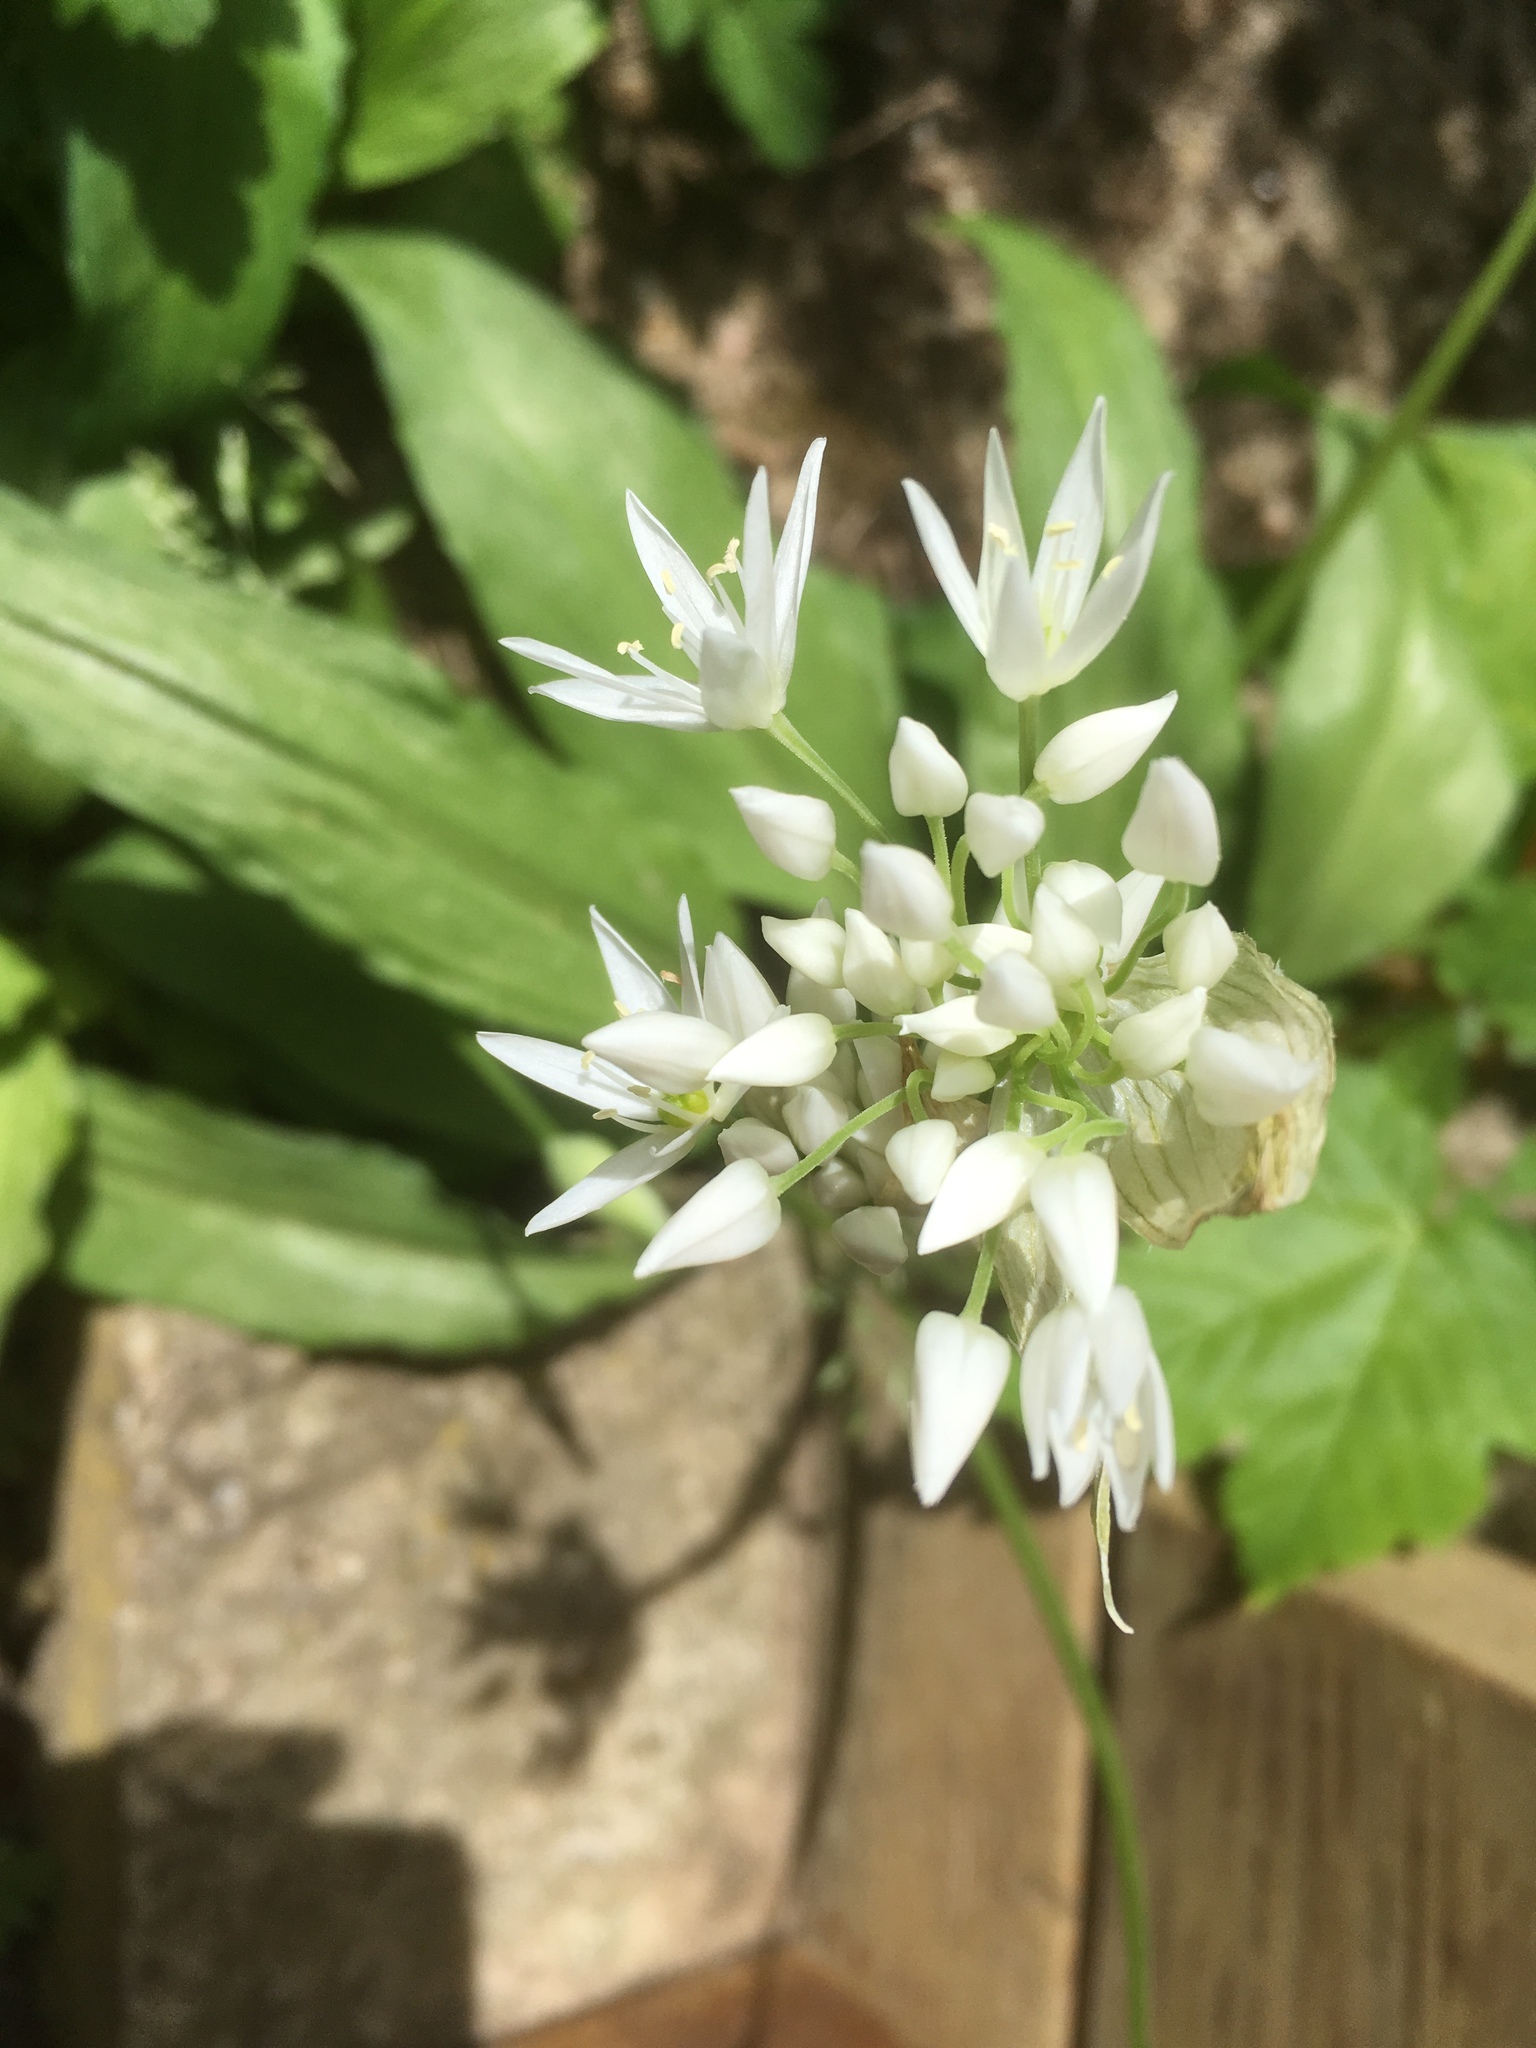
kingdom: Plantae
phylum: Tracheophyta
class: Liliopsida
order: Asparagales
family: Amaryllidaceae
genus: Allium
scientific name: Allium ursinum
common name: Ramsons
